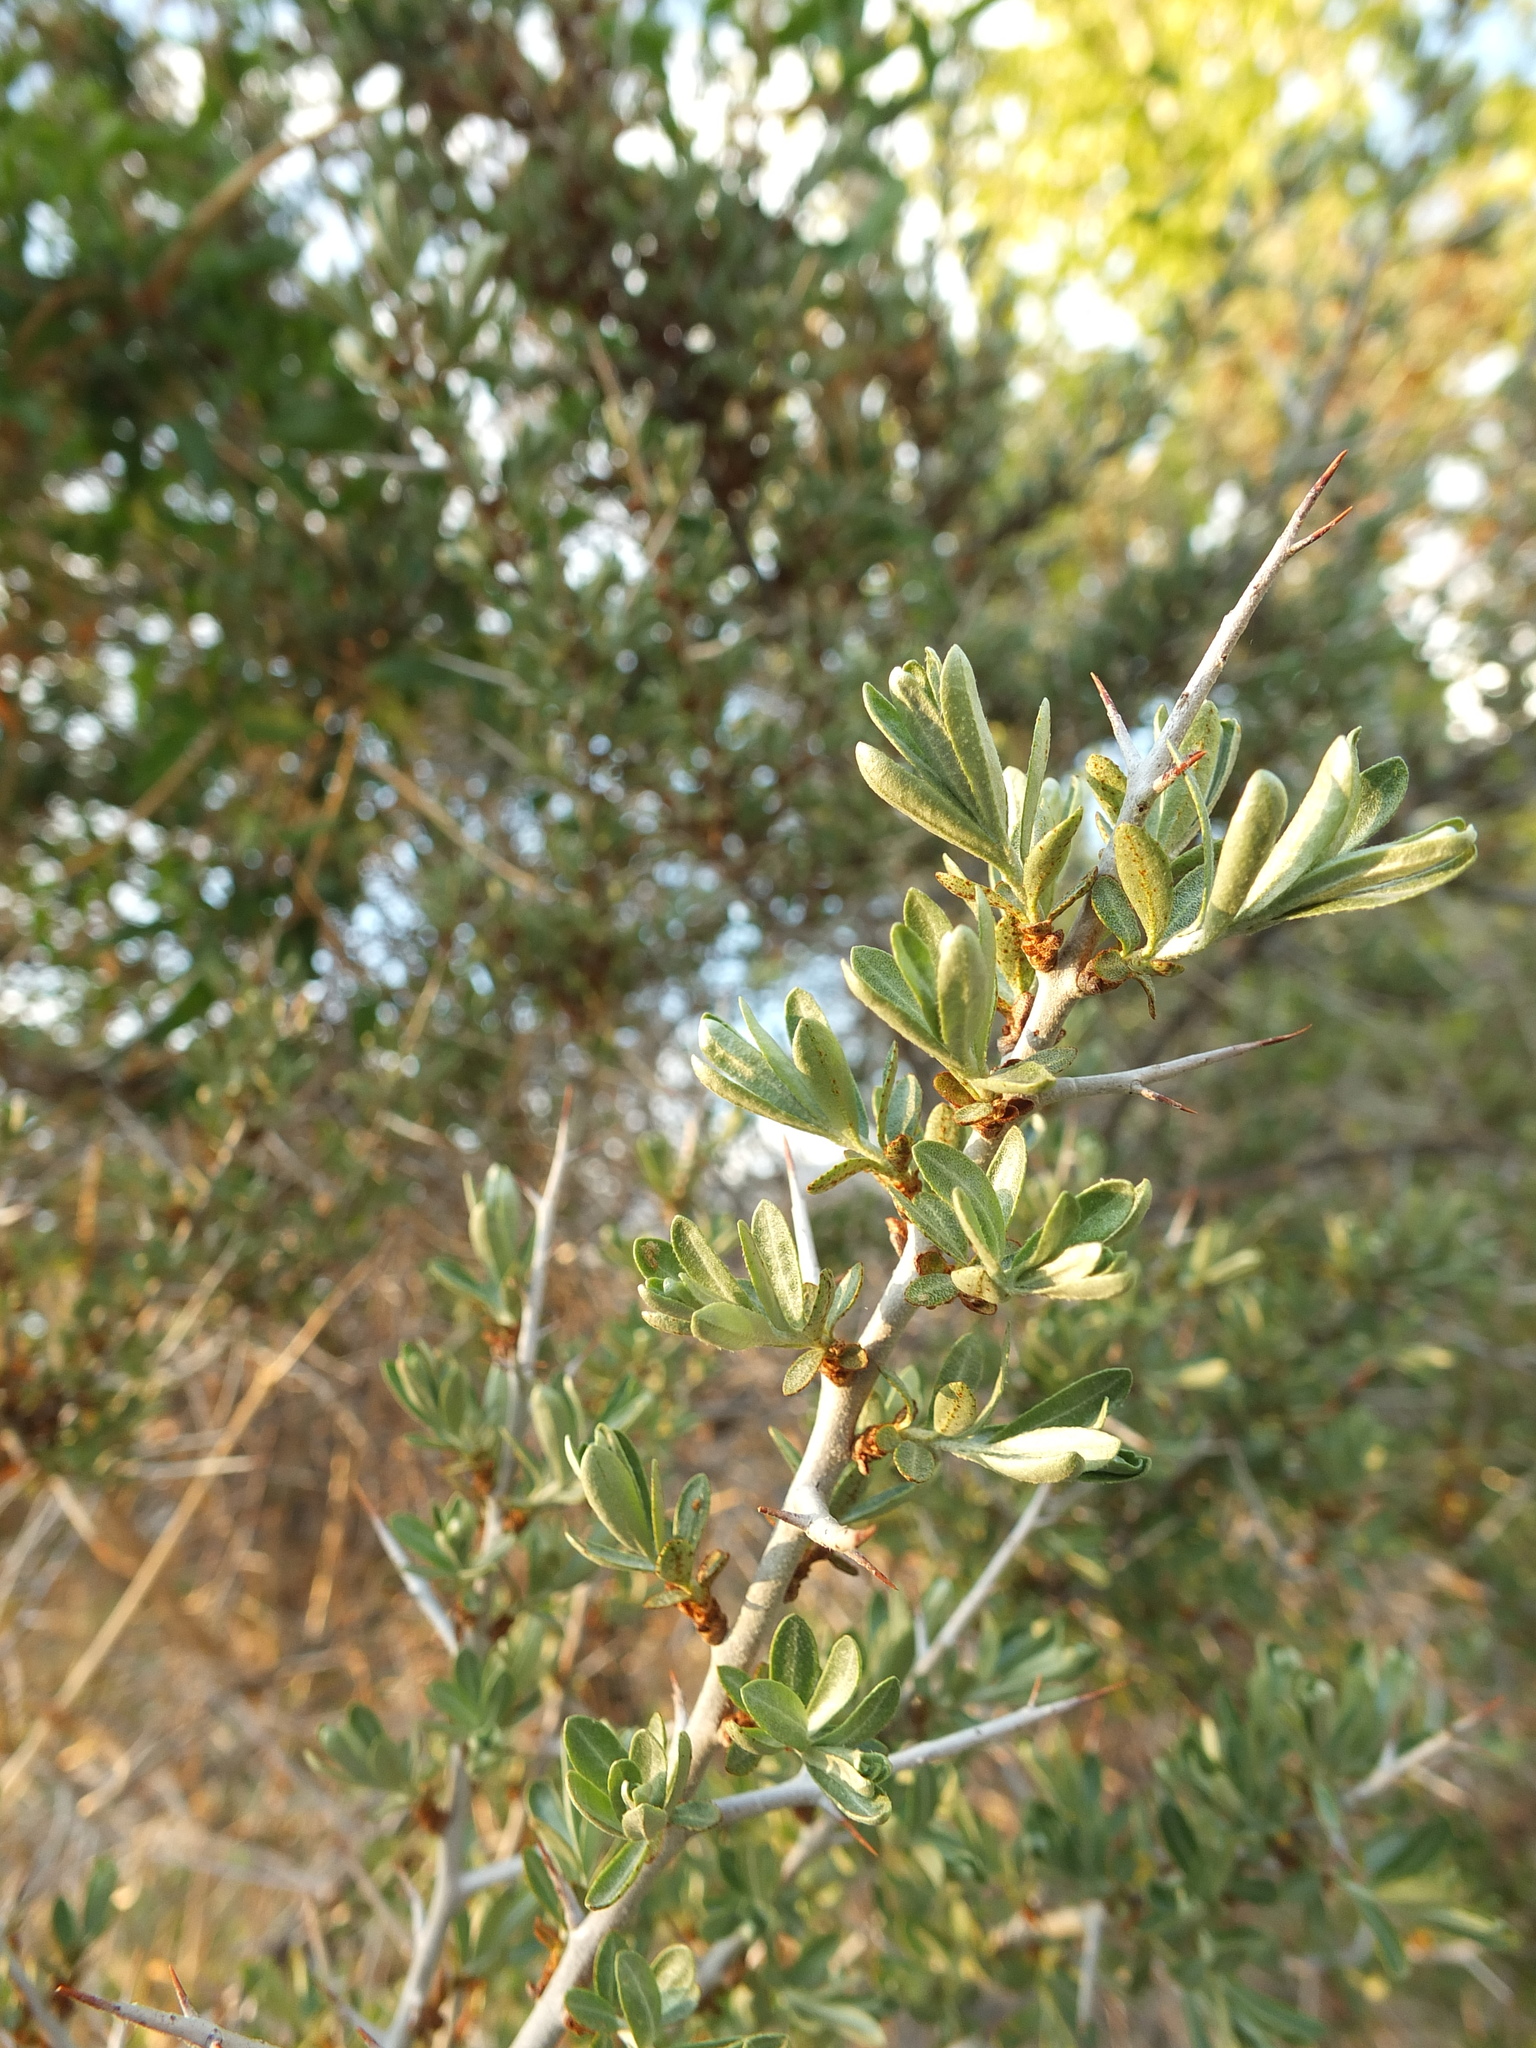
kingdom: Plantae
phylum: Tracheophyta
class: Magnoliopsida
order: Rosales
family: Elaeagnaceae
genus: Hippophae
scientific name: Hippophae tibetana
